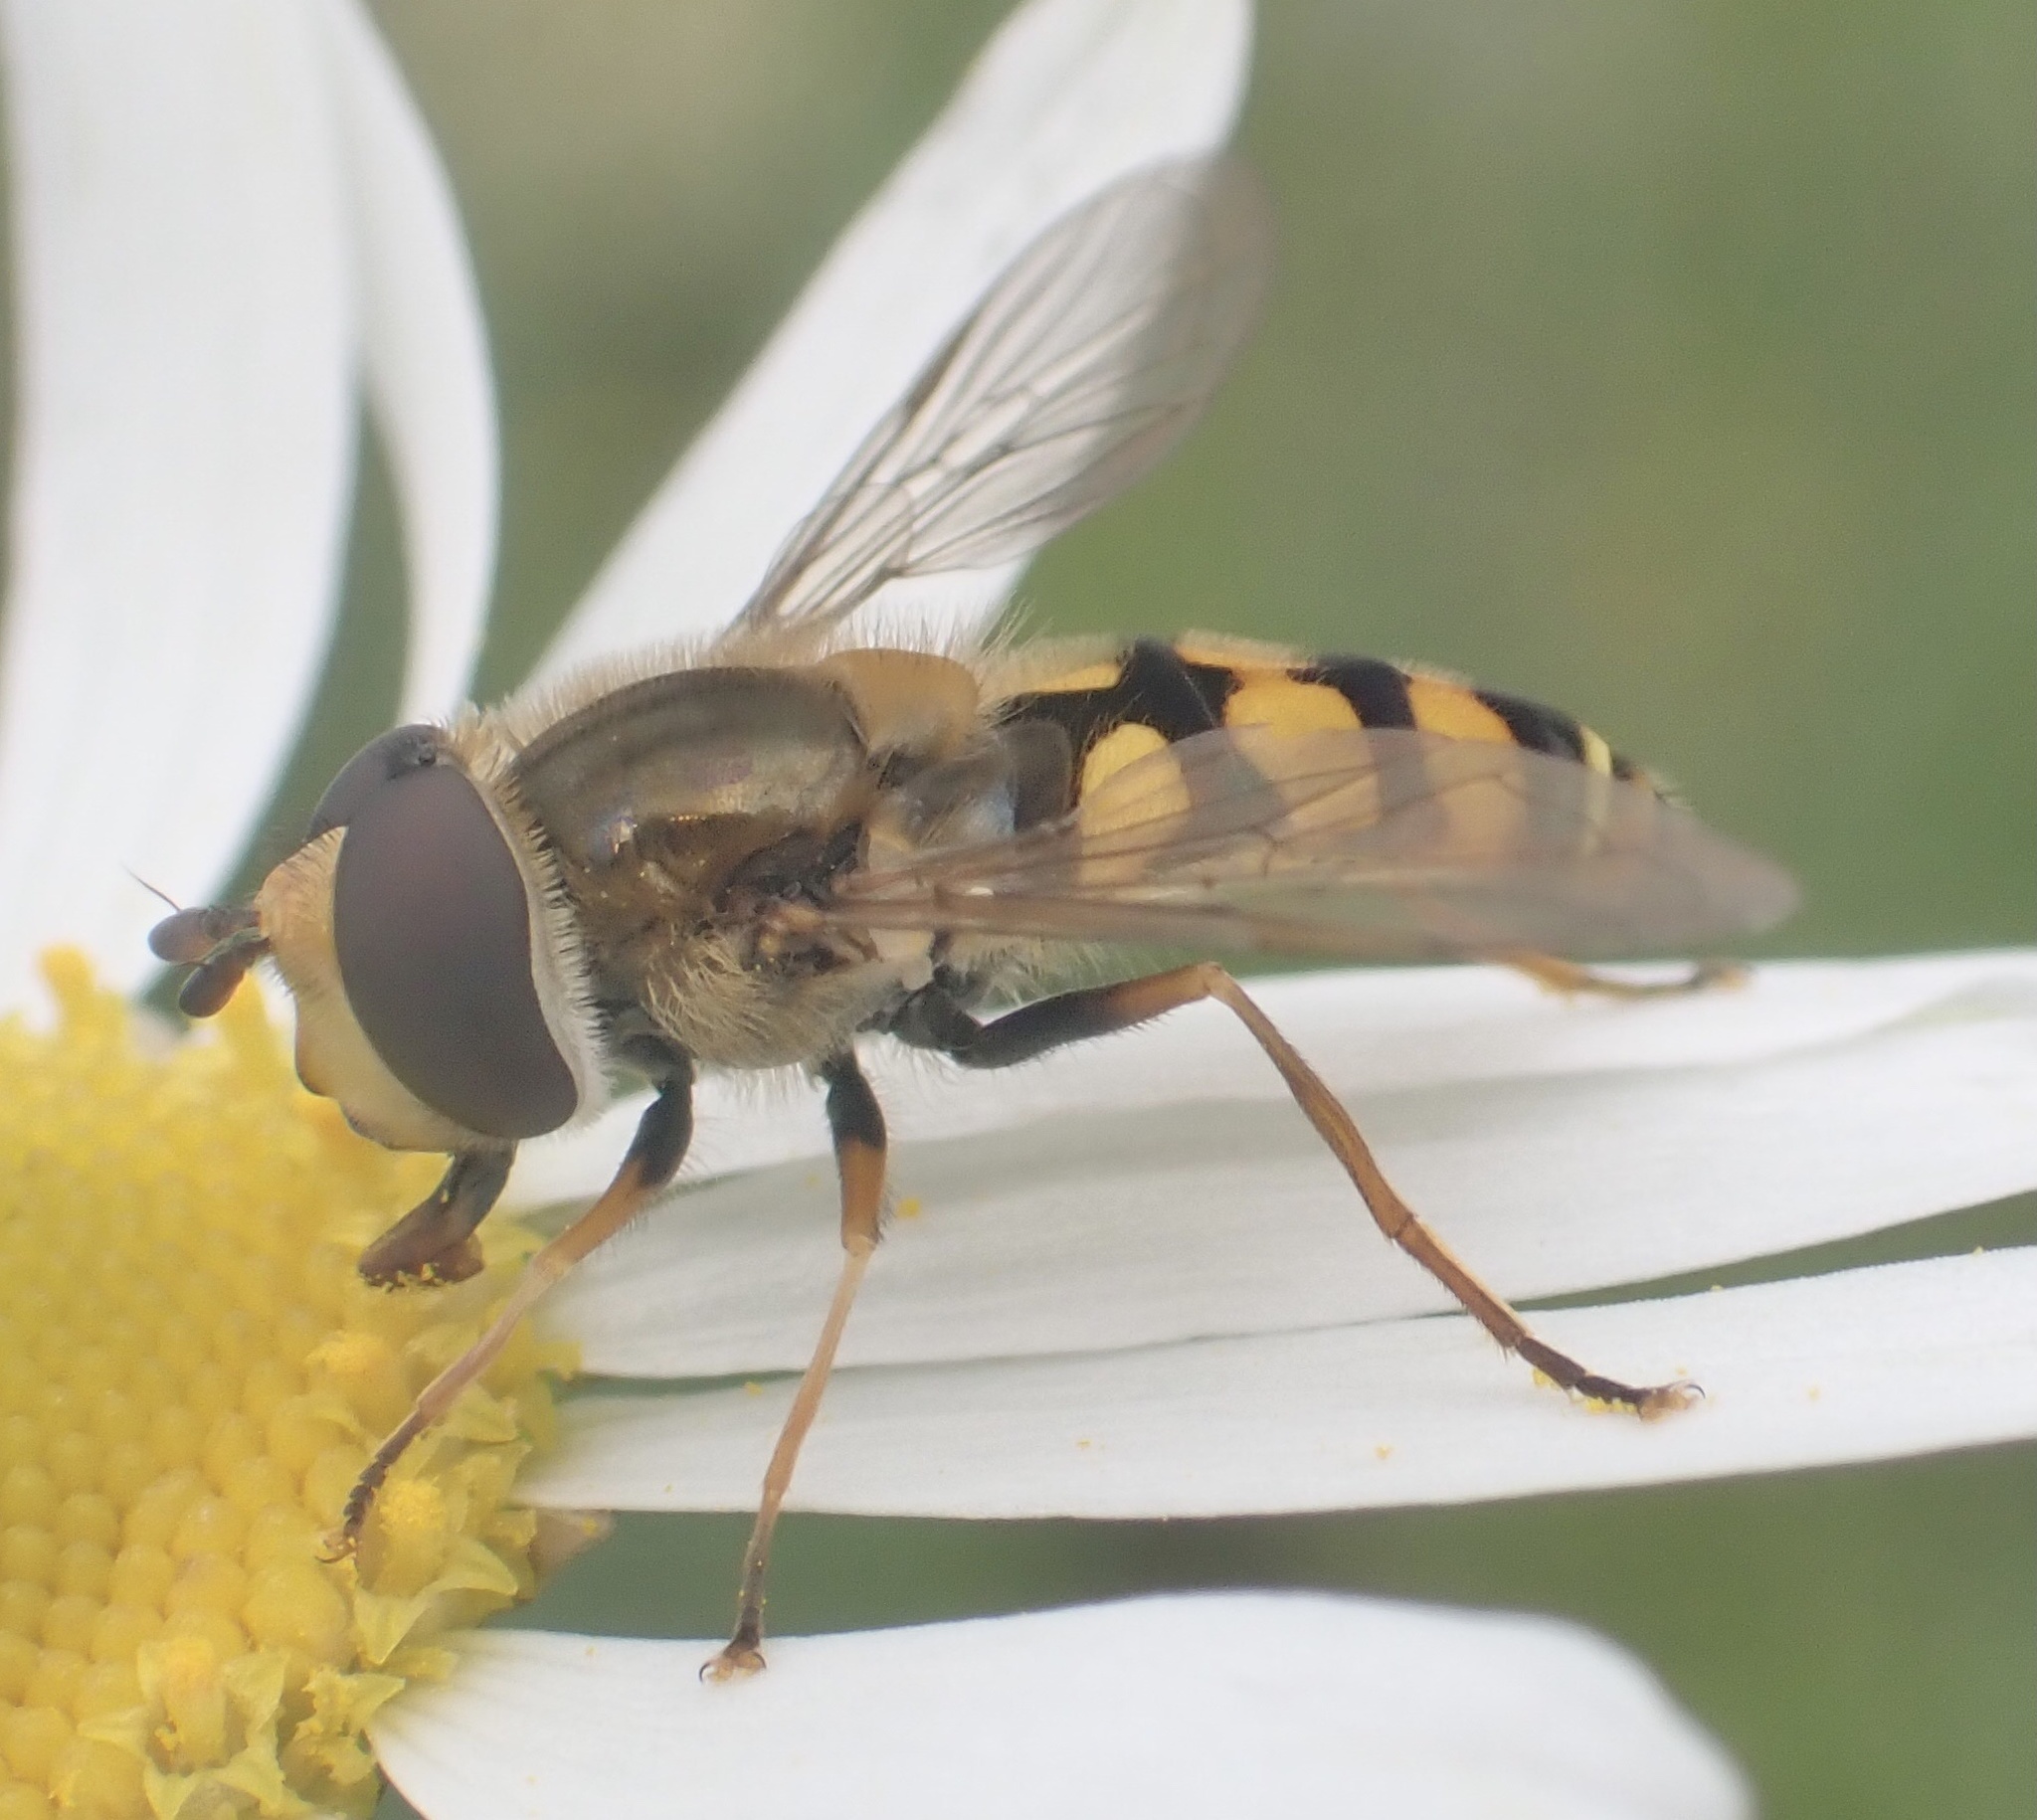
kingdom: Animalia
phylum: Arthropoda
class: Insecta
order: Diptera
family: Syrphidae
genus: Eupeodes
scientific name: Eupeodes corollae
